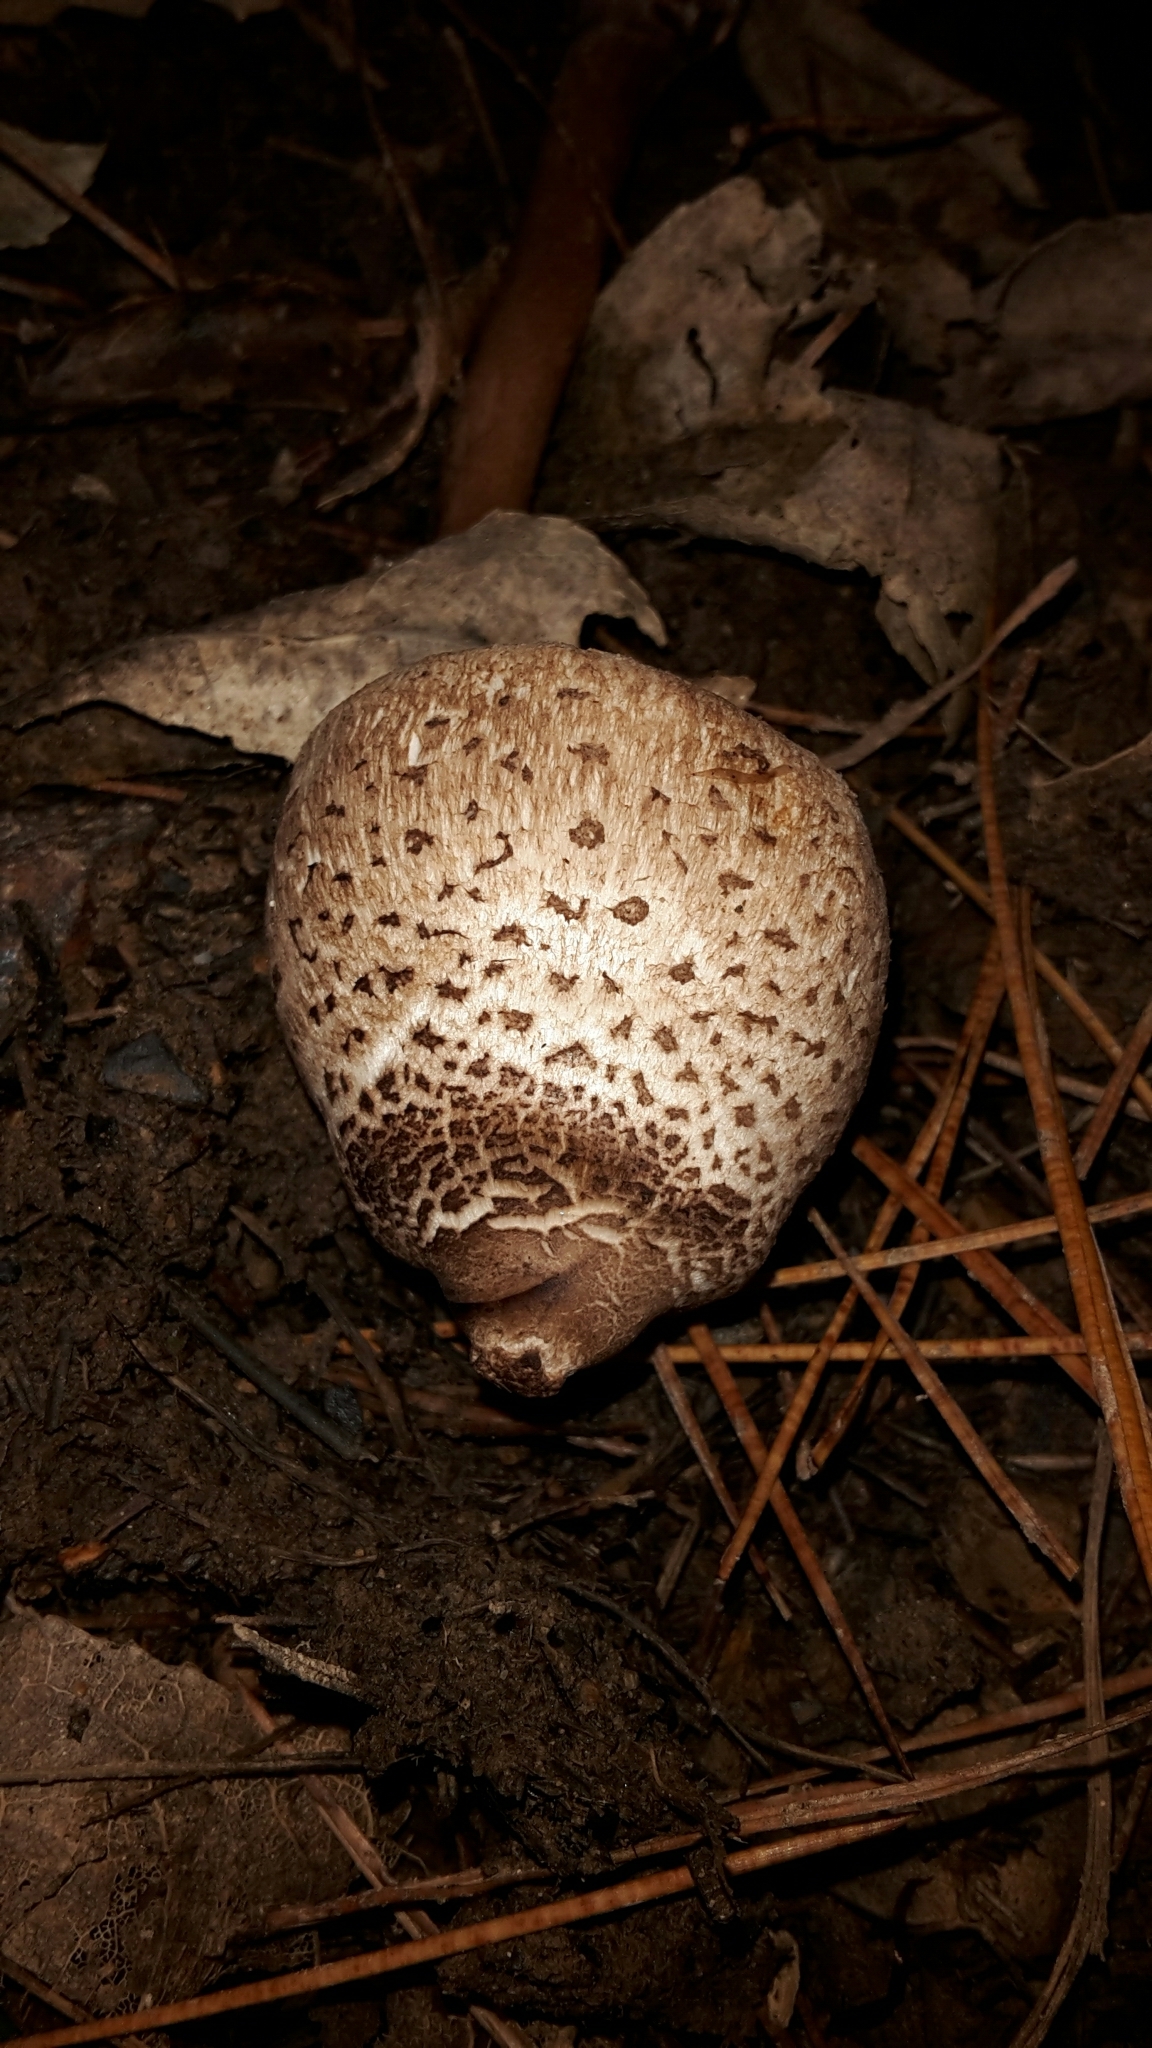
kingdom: Fungi
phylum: Basidiomycota
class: Agaricomycetes
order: Agaricales
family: Agaricaceae
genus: Macrolepiota
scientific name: Macrolepiota clelandii
